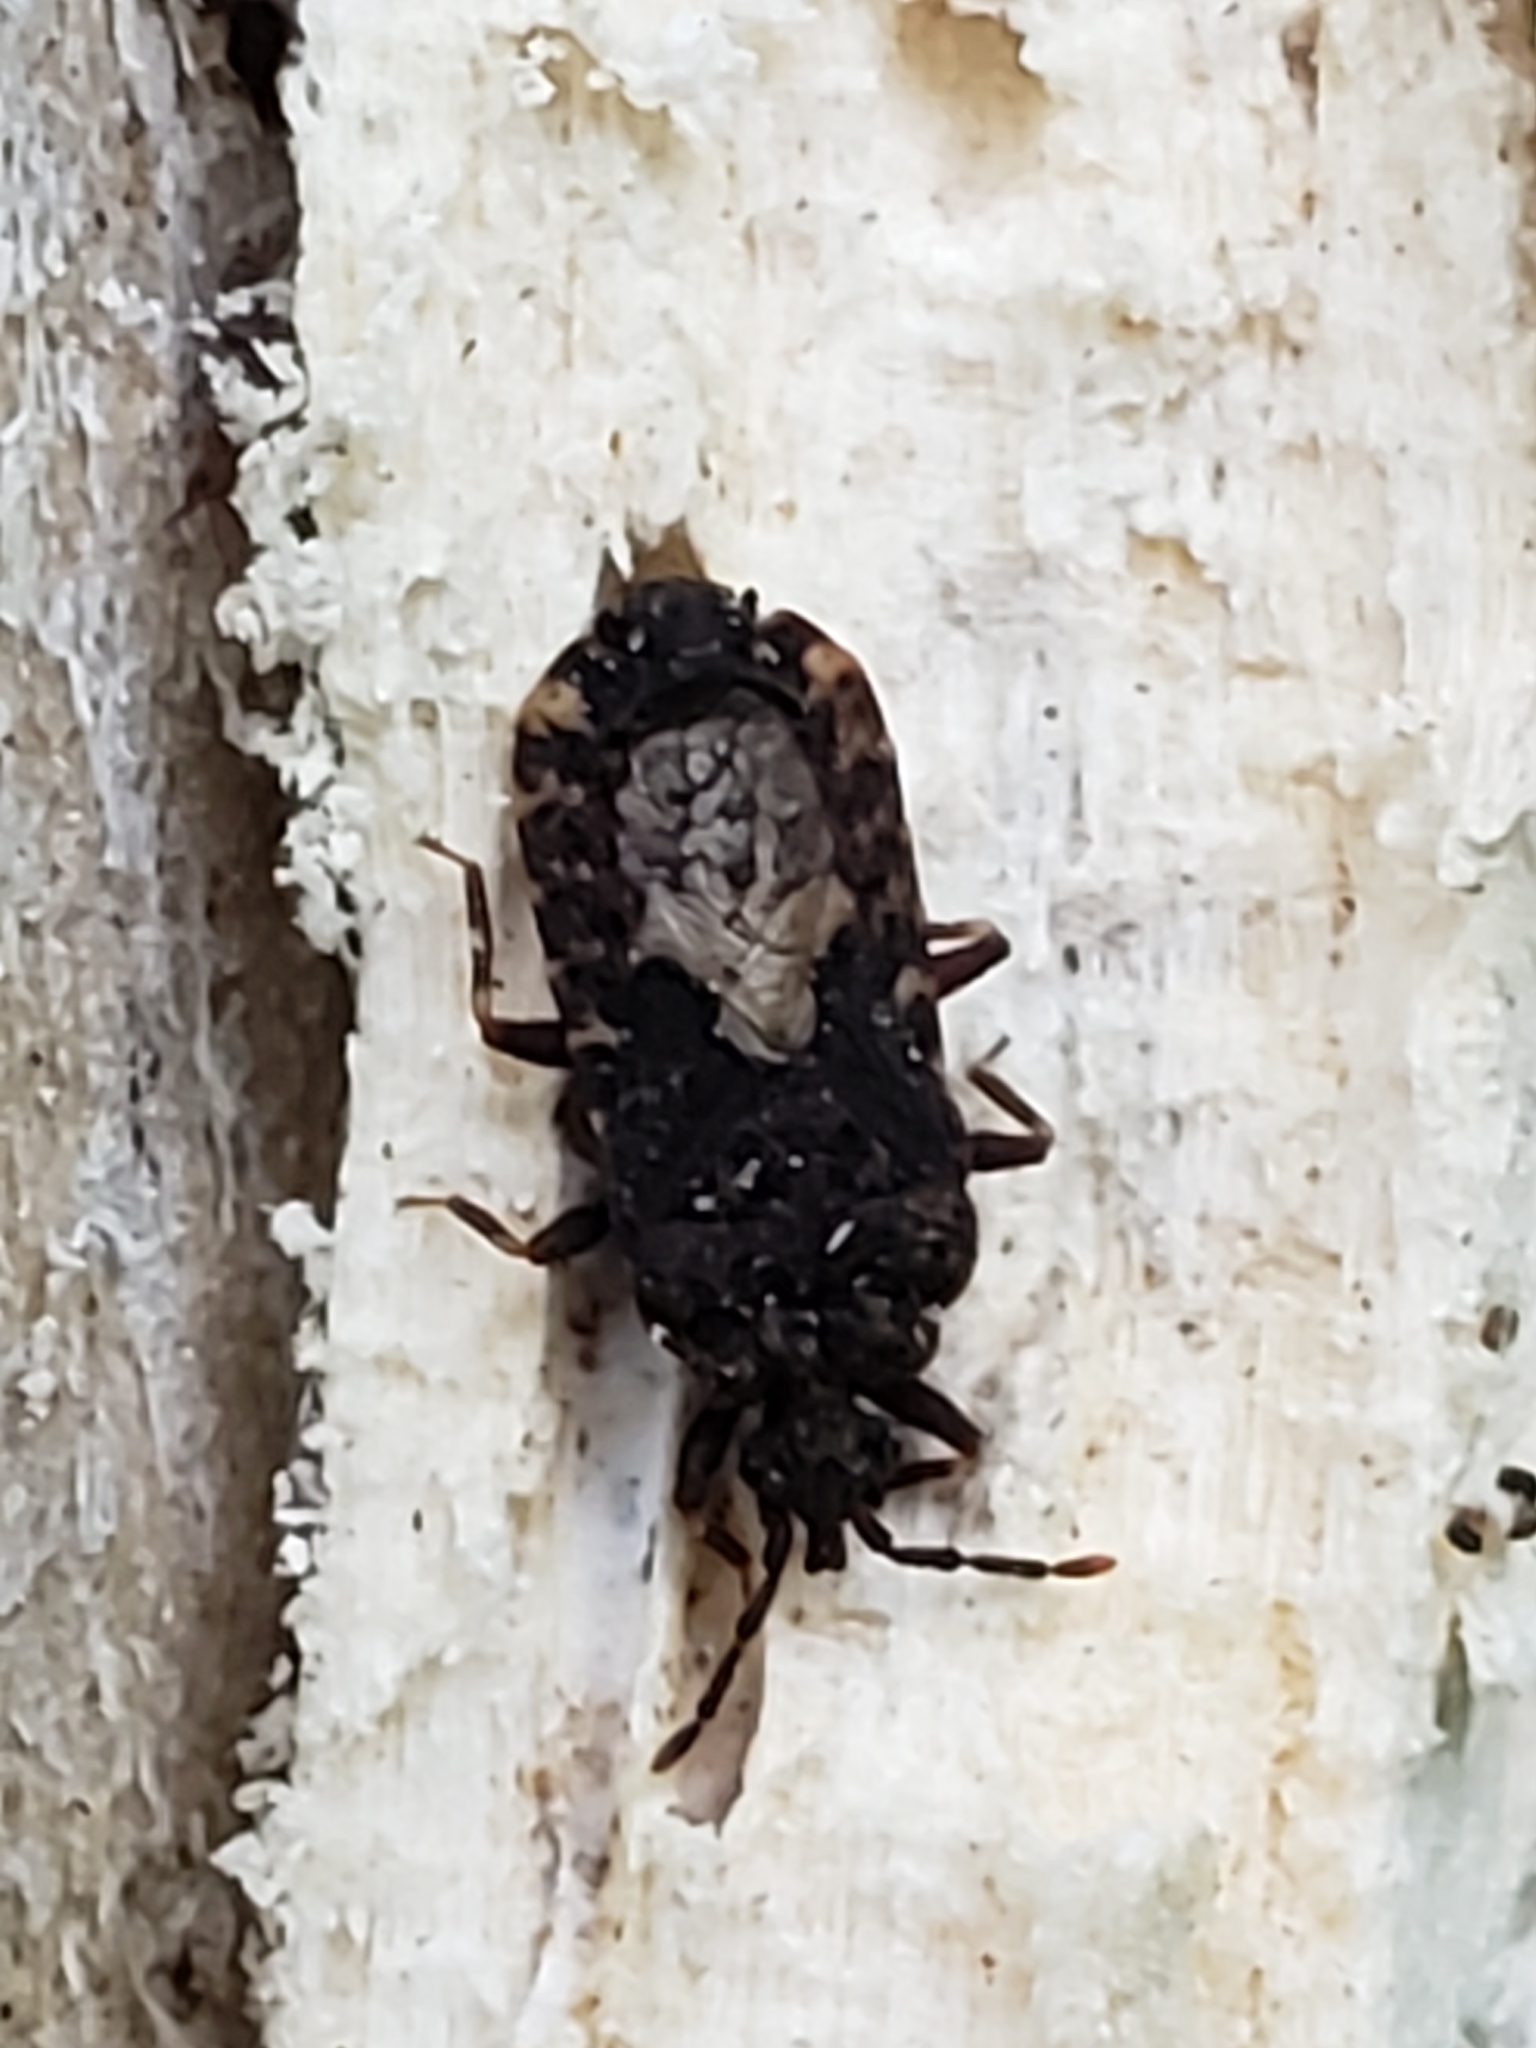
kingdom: Animalia
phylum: Arthropoda
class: Insecta
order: Hemiptera
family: Aradidae
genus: Mezira
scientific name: Mezira
